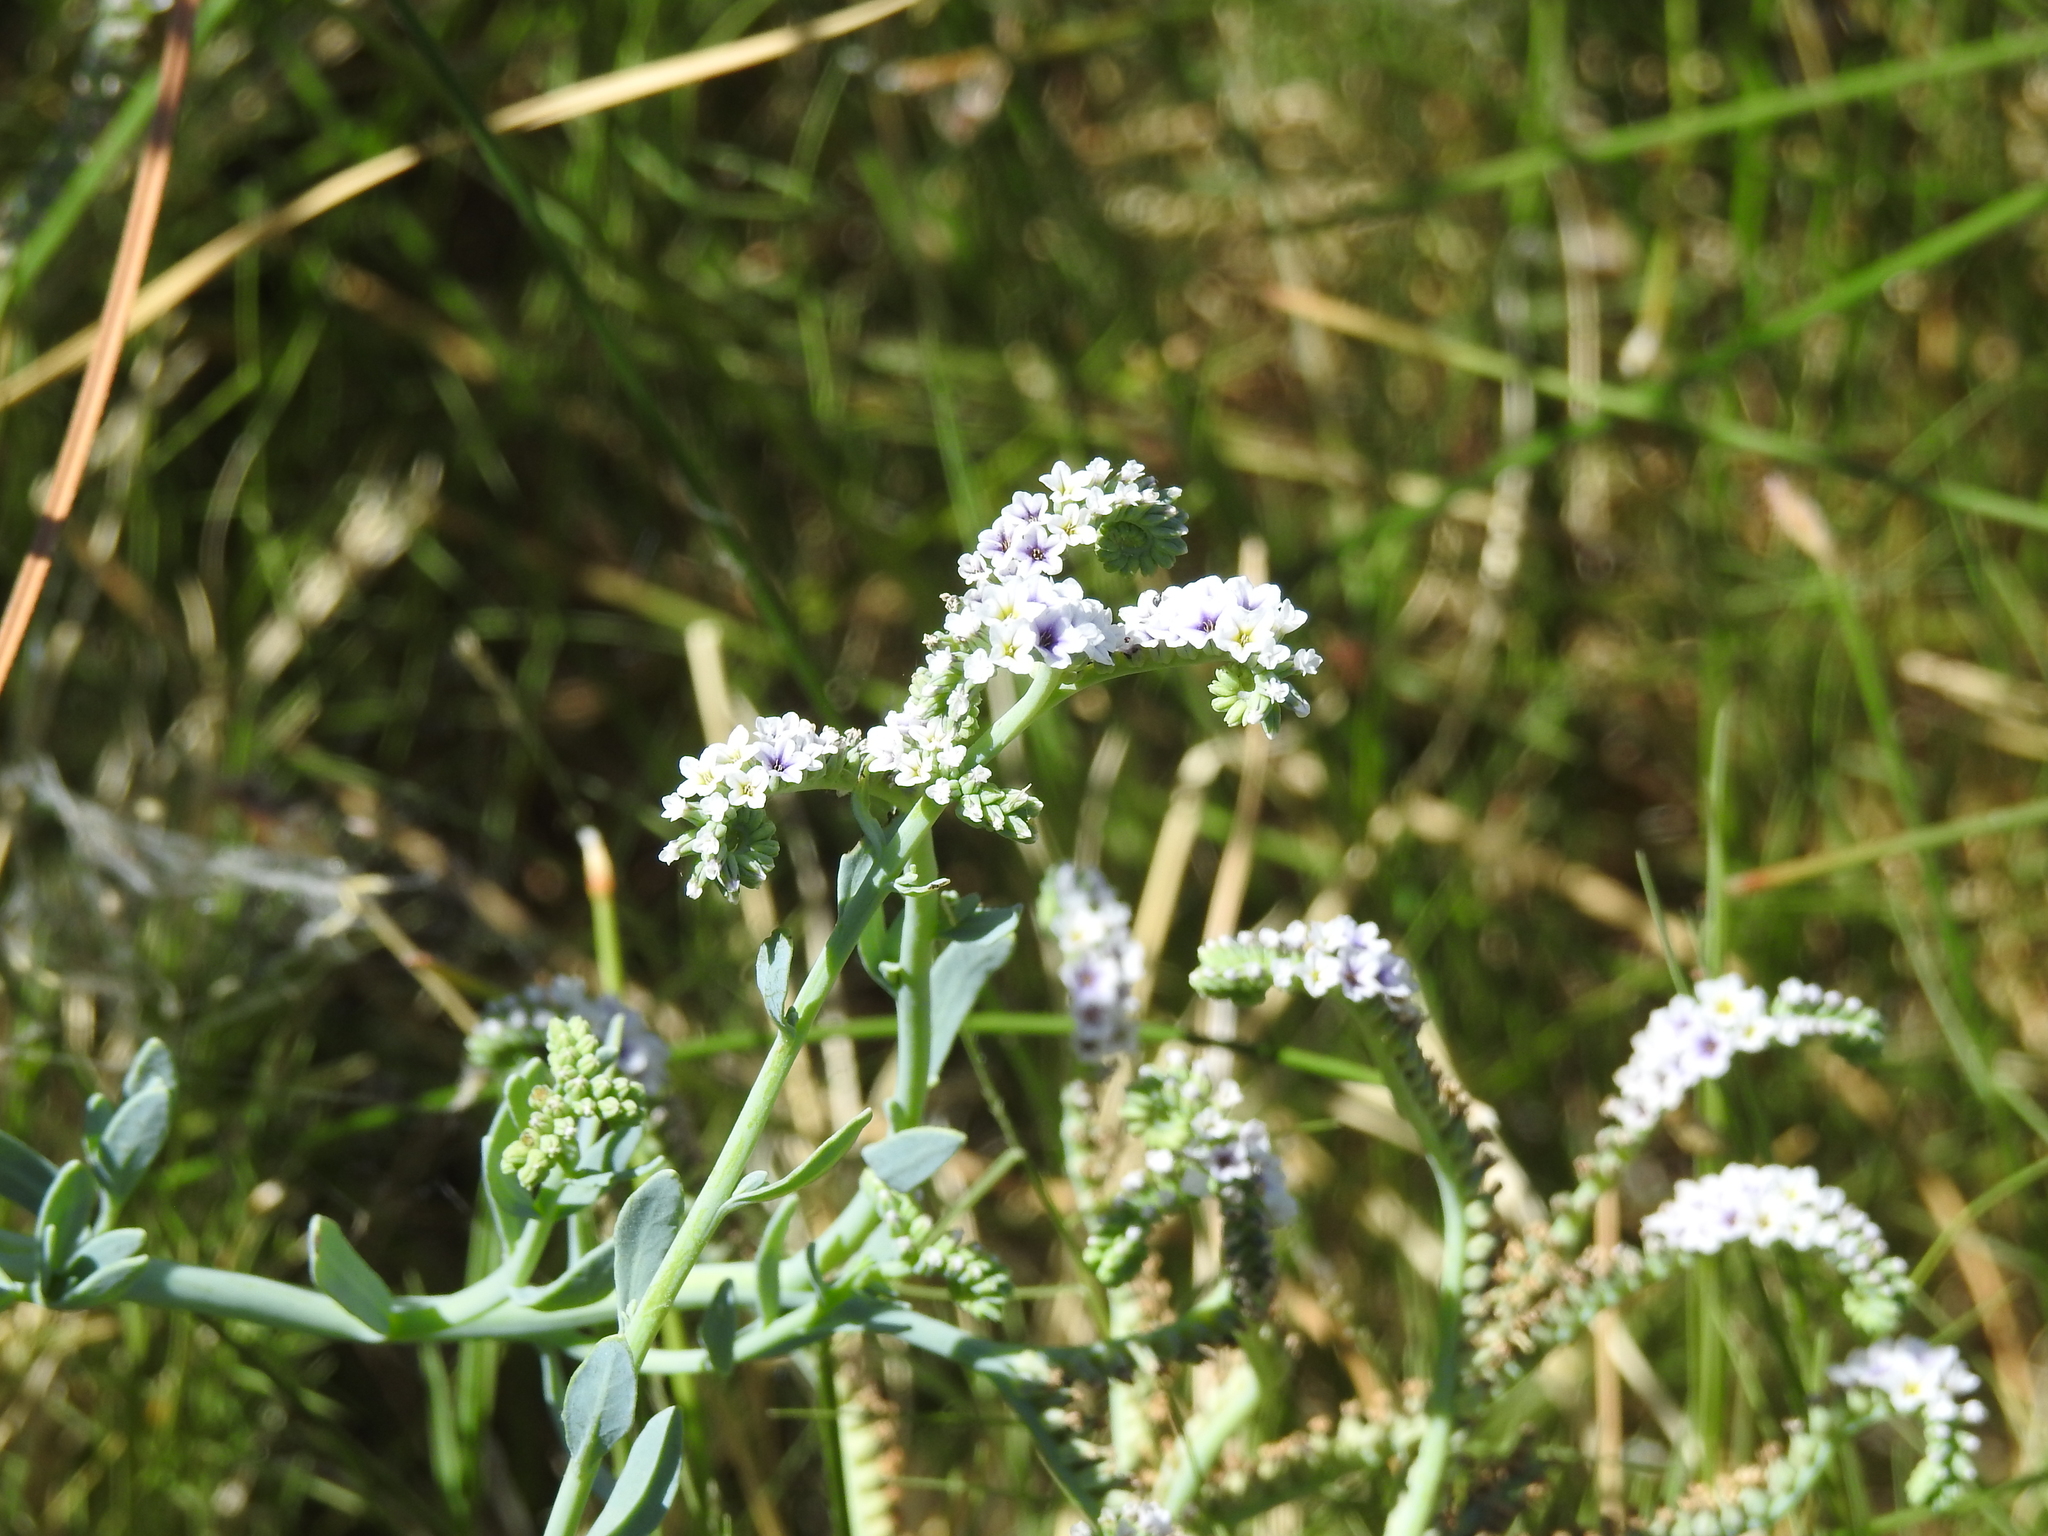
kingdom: Plantae
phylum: Tracheophyta
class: Magnoliopsida
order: Boraginales
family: Heliotropiaceae
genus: Heliotropium
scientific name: Heliotropium curassavicum
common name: Seaside heliotrope
